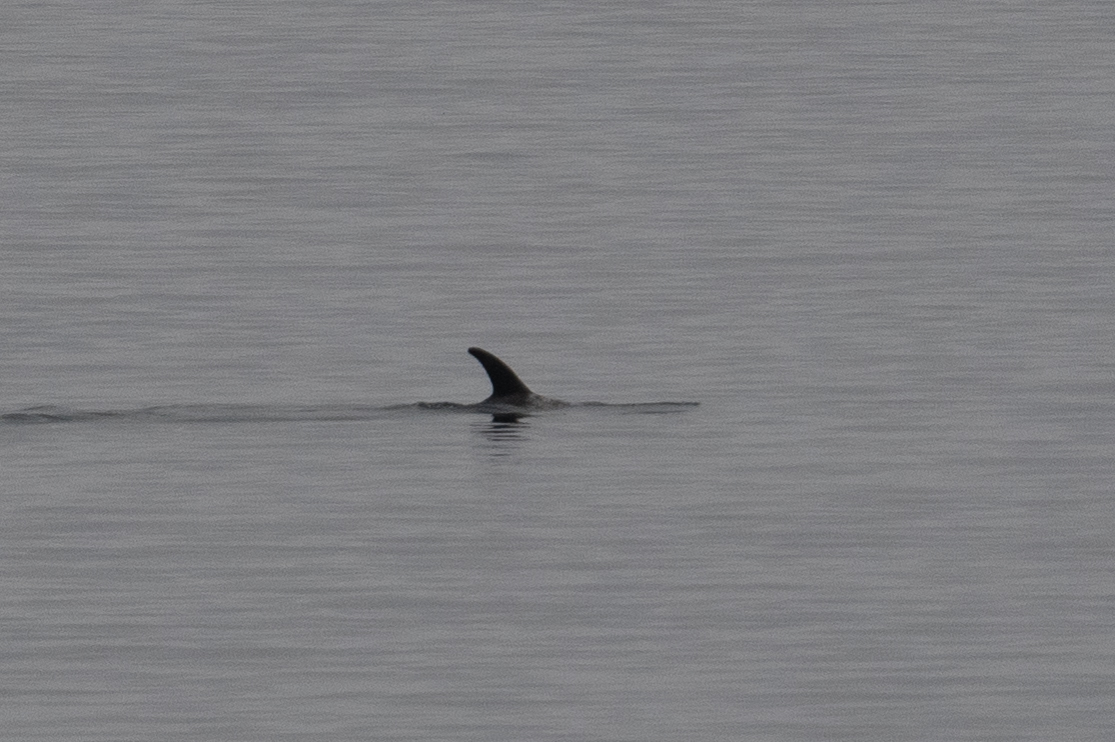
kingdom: Animalia
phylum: Chordata
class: Mammalia
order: Cetacea
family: Delphinidae
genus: Grampus
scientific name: Grampus griseus
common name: Risso's dolphin
